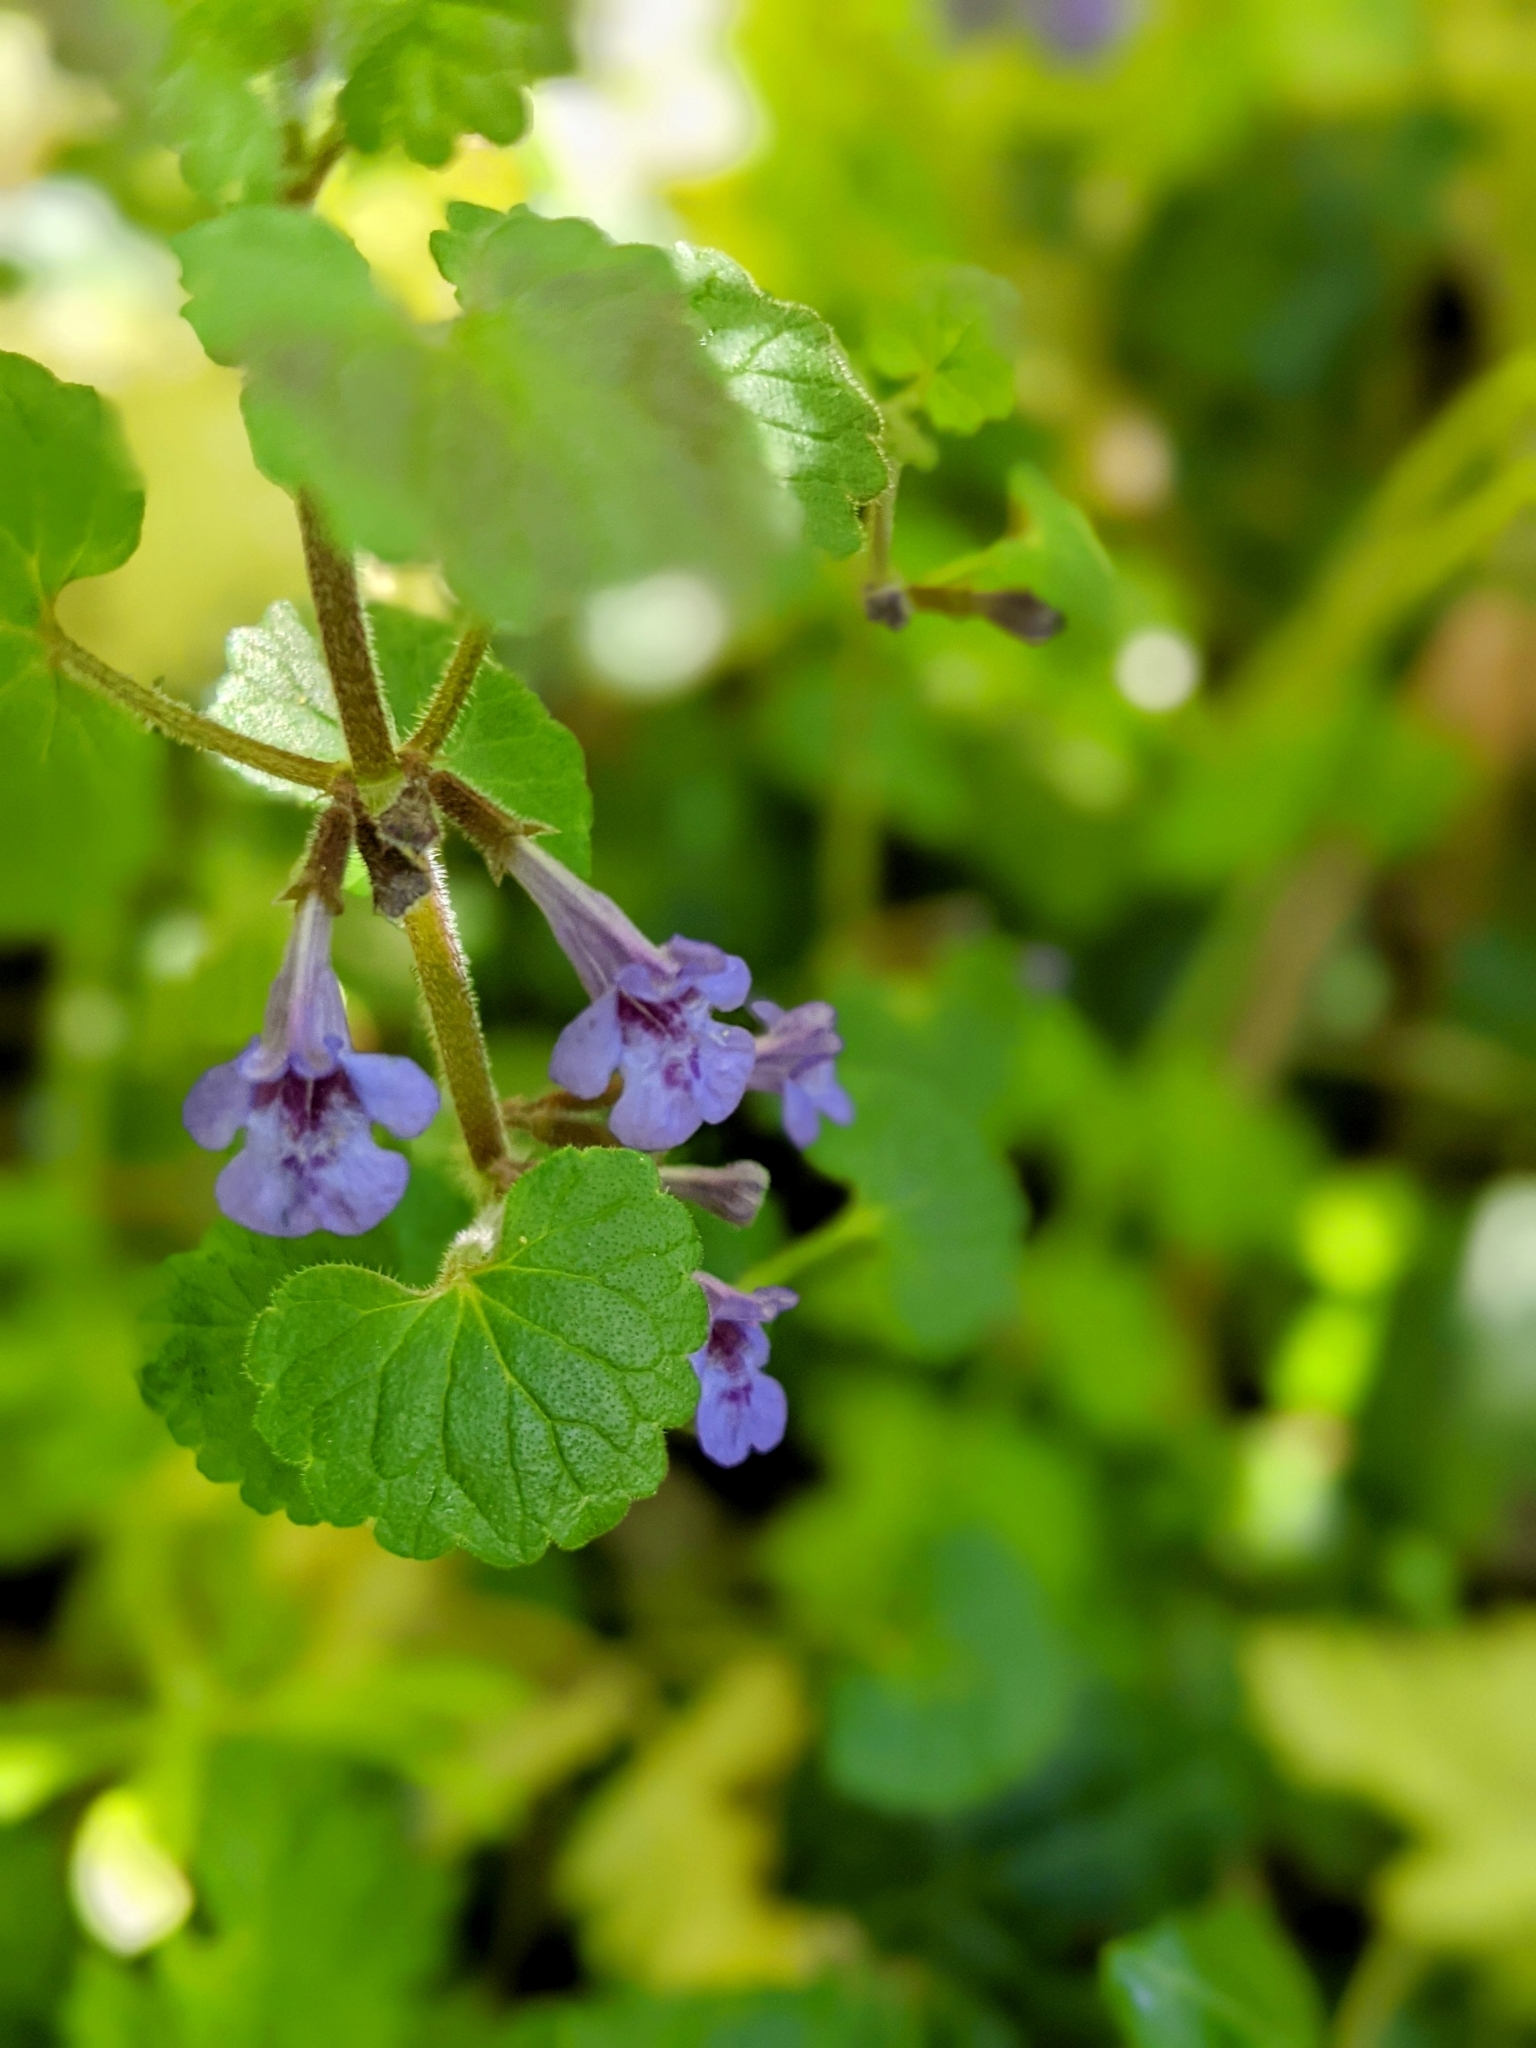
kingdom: Plantae
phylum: Tracheophyta
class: Magnoliopsida
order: Lamiales
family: Lamiaceae
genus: Glechoma
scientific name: Glechoma hederacea
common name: Ground ivy
